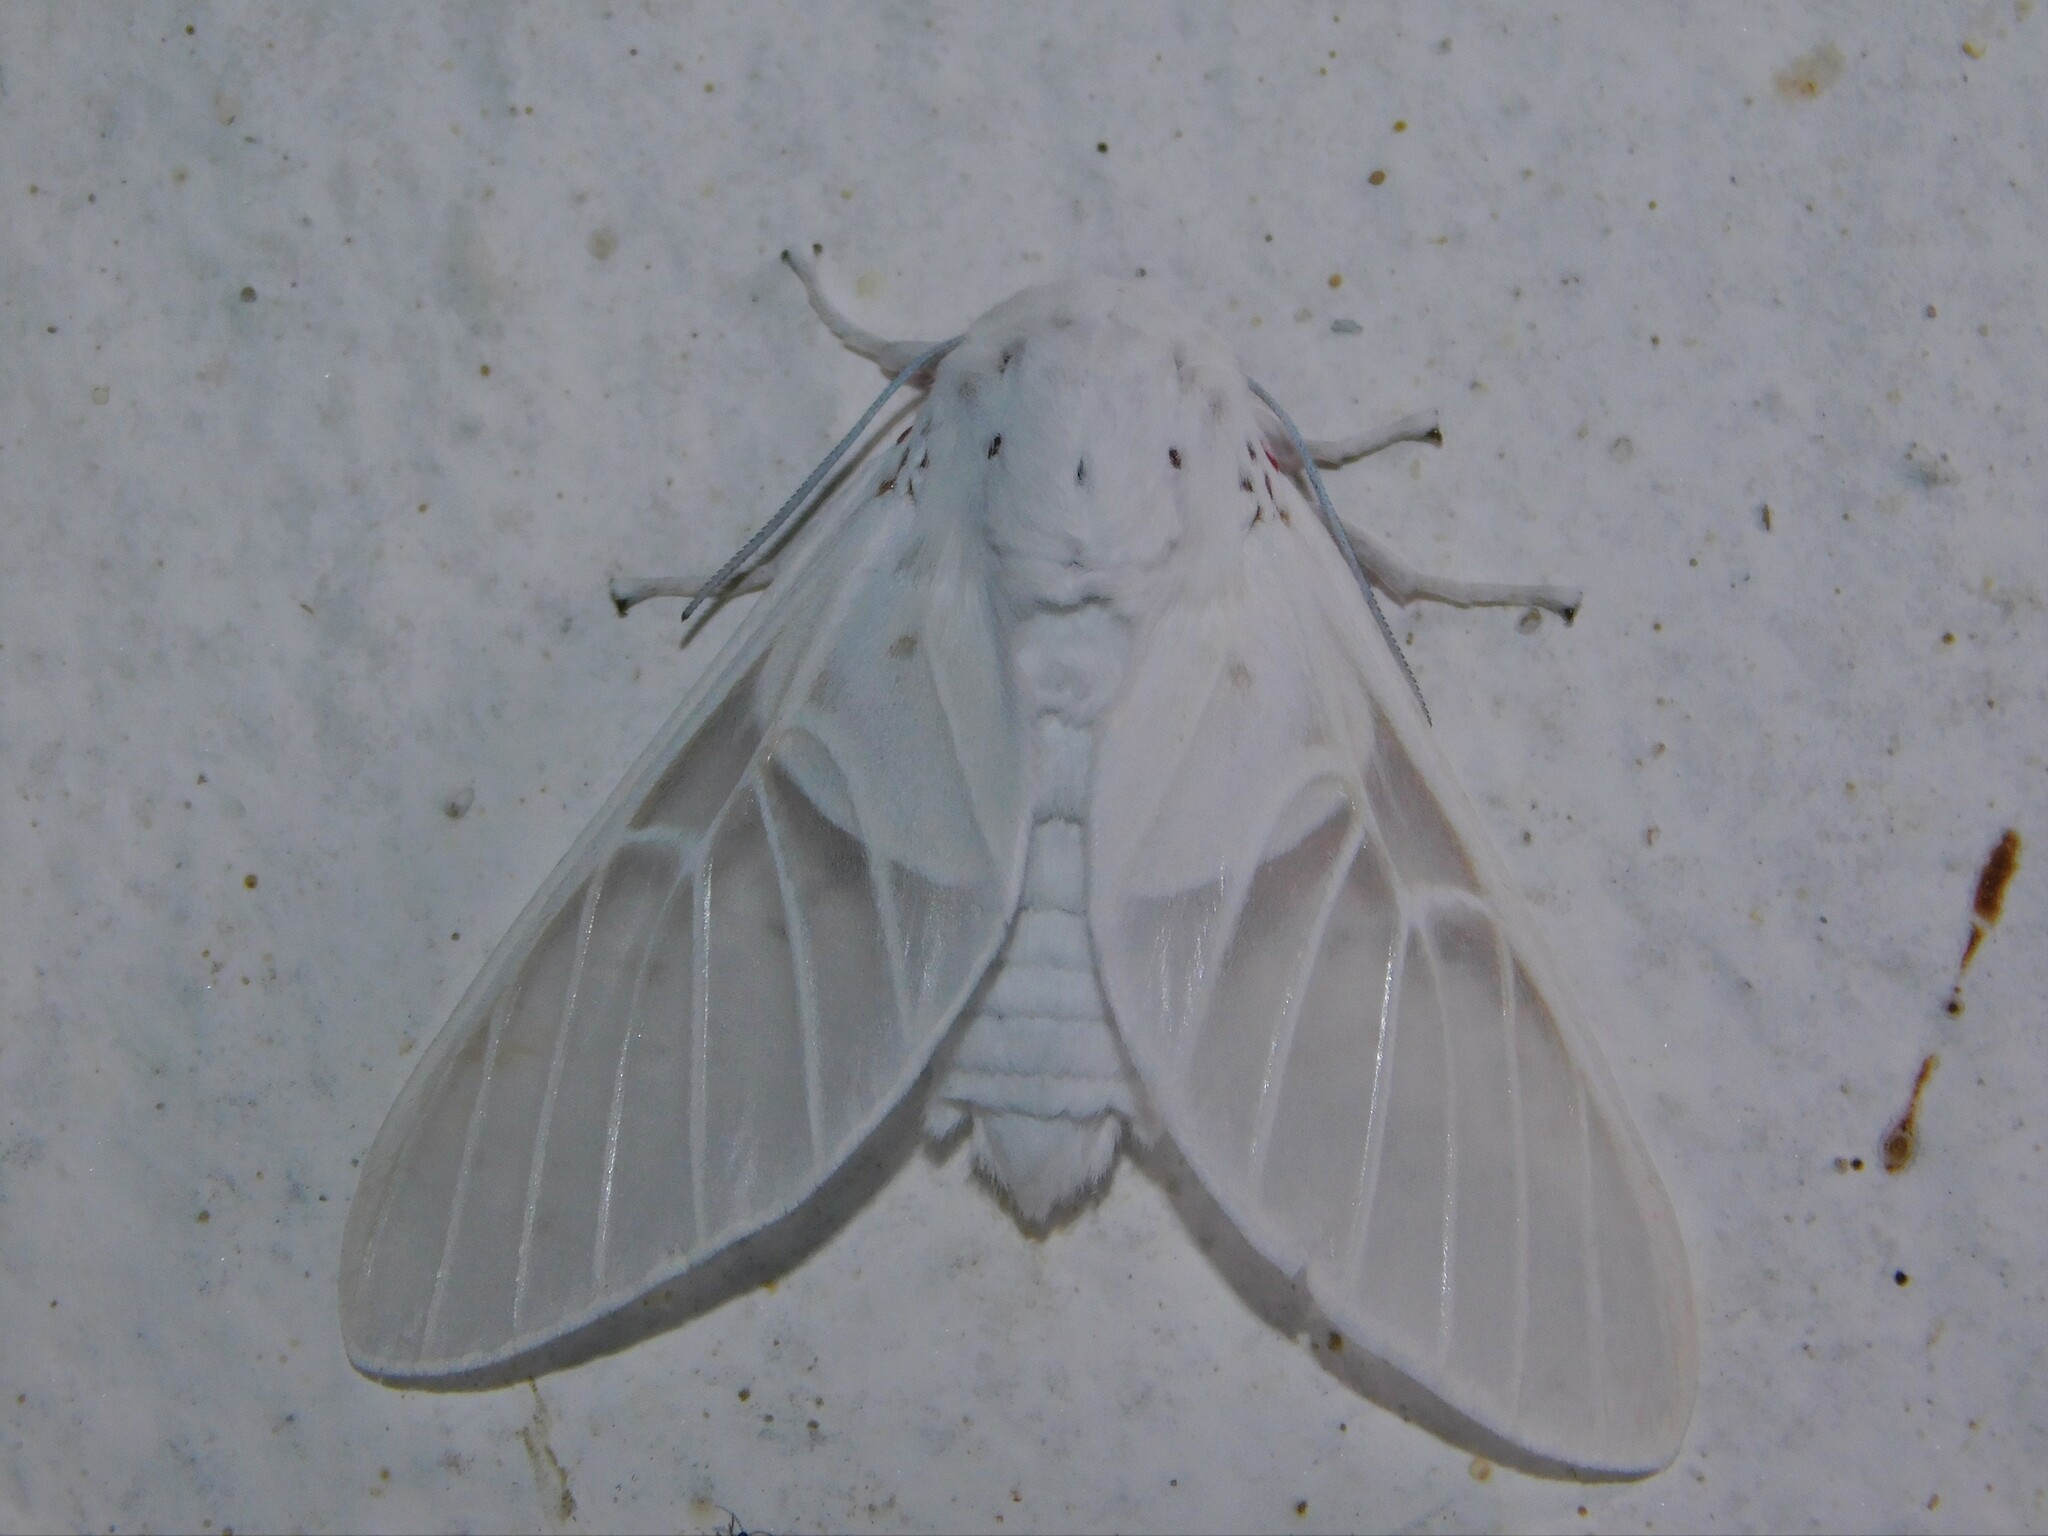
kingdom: Animalia
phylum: Arthropoda
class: Insecta
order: Lepidoptera
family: Erebidae
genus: Balacra
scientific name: Balacra pulchra
